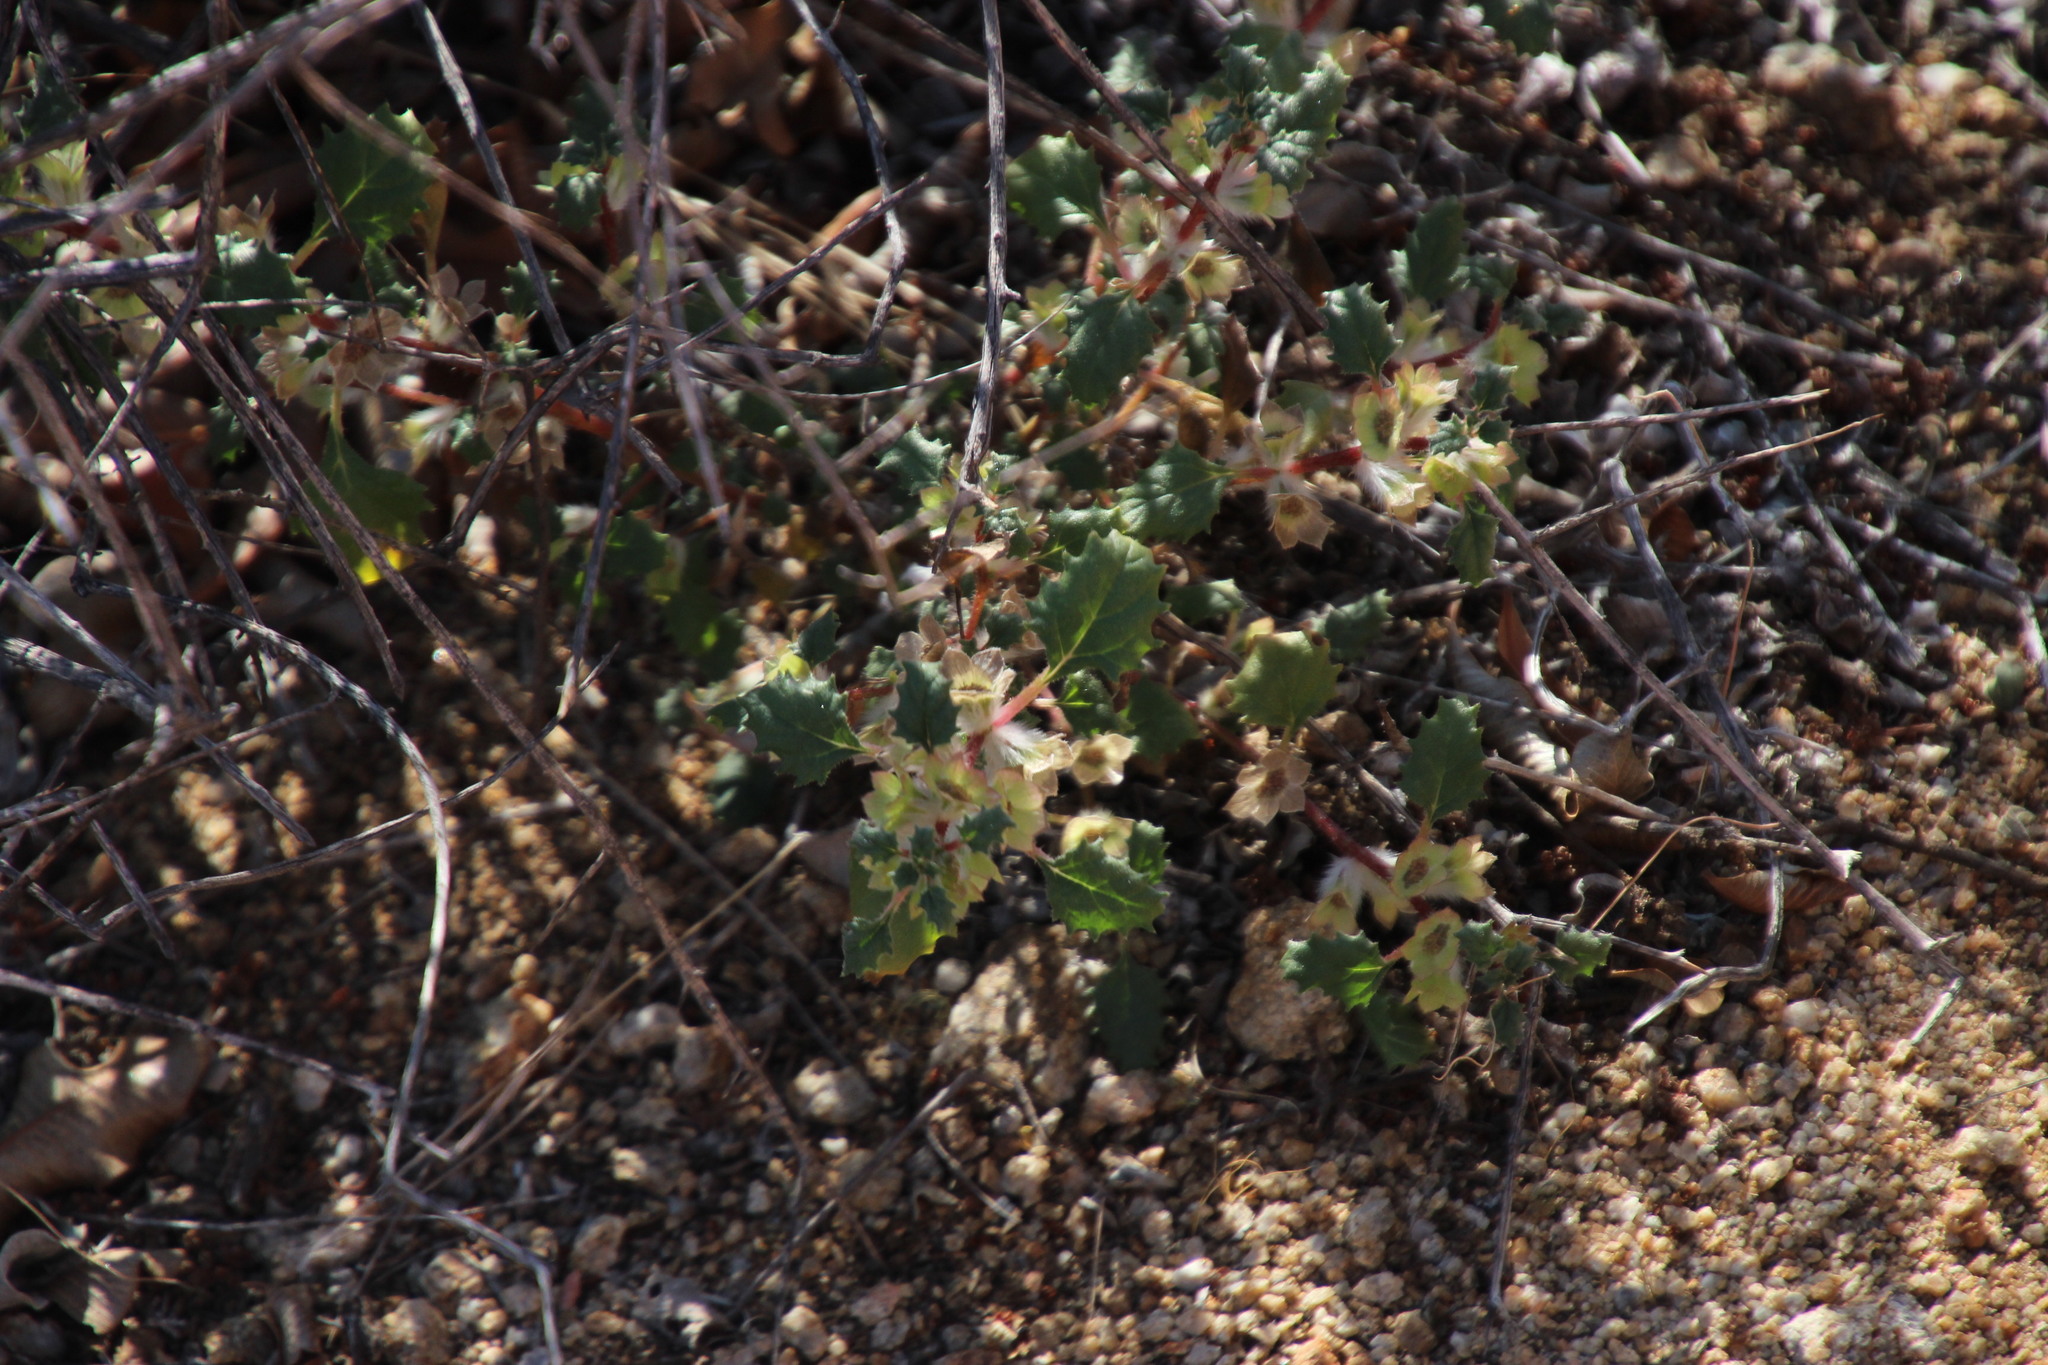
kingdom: Plantae
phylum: Tracheophyta
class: Magnoliopsida
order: Rosales
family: Urticaceae
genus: Forsskaolea
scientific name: Forsskaolea candida
